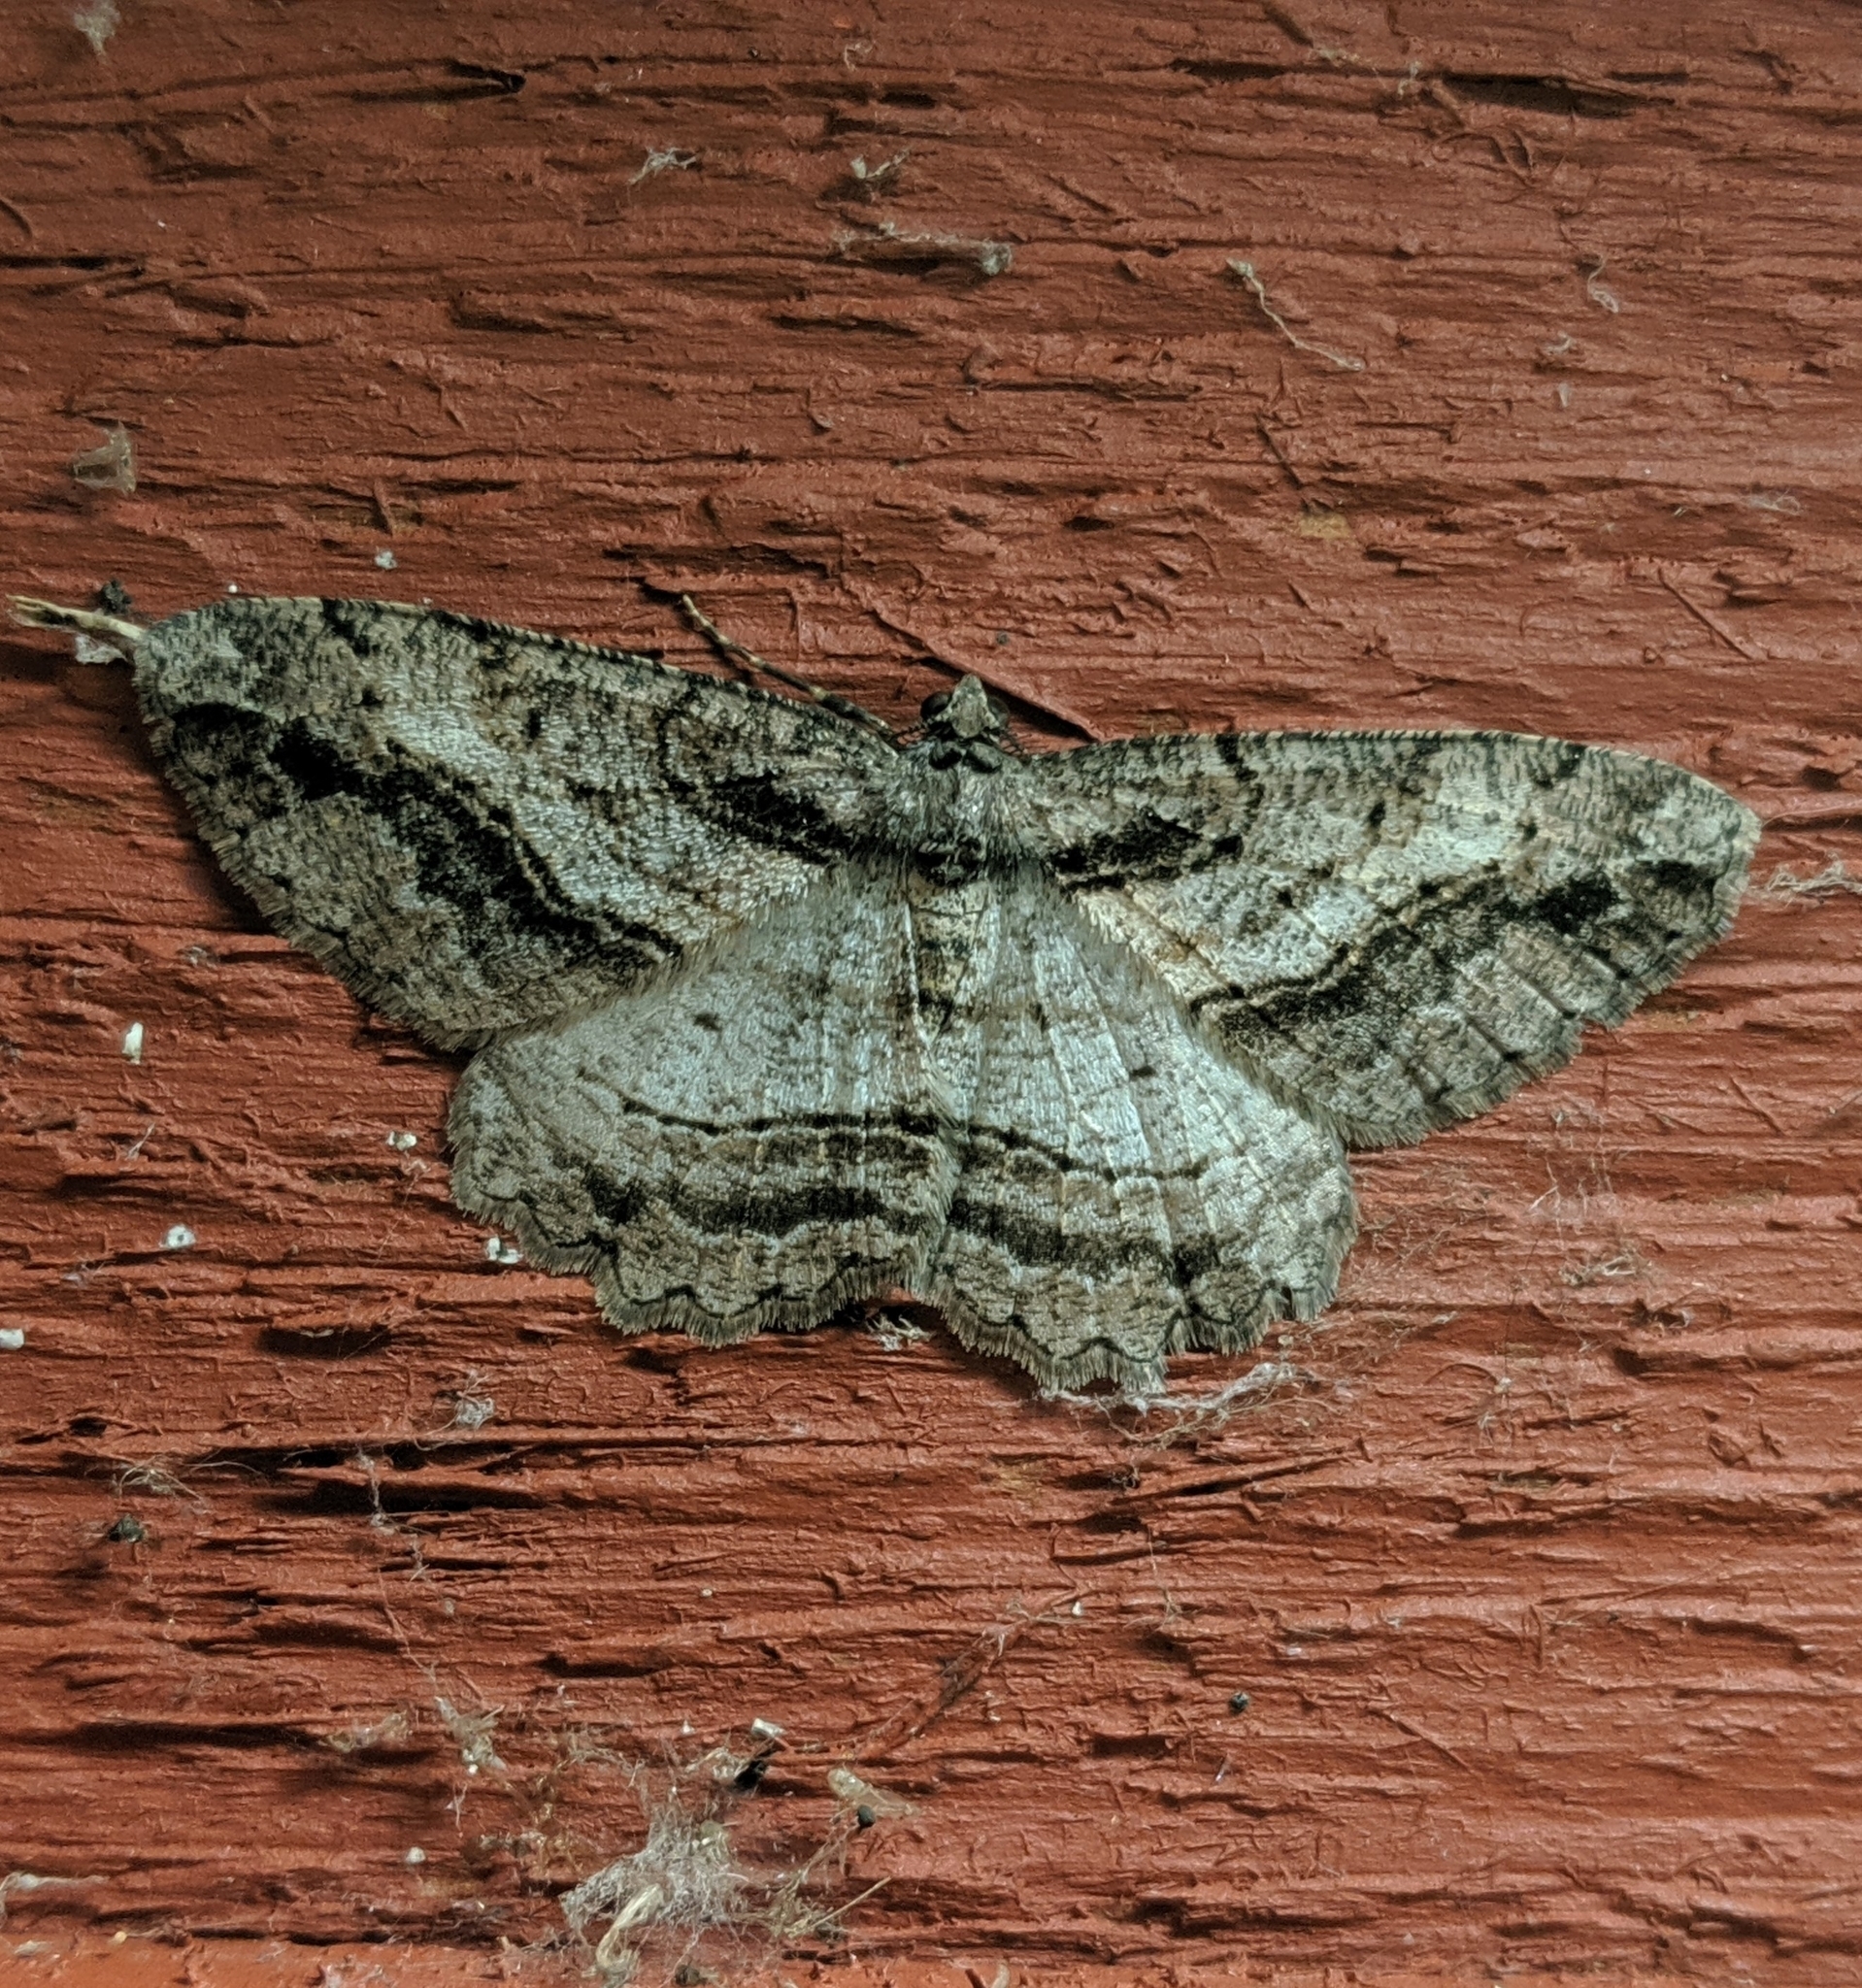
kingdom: Animalia
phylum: Arthropoda
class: Insecta
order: Lepidoptera
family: Geometridae
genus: Neoalcis
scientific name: Neoalcis californiaria
